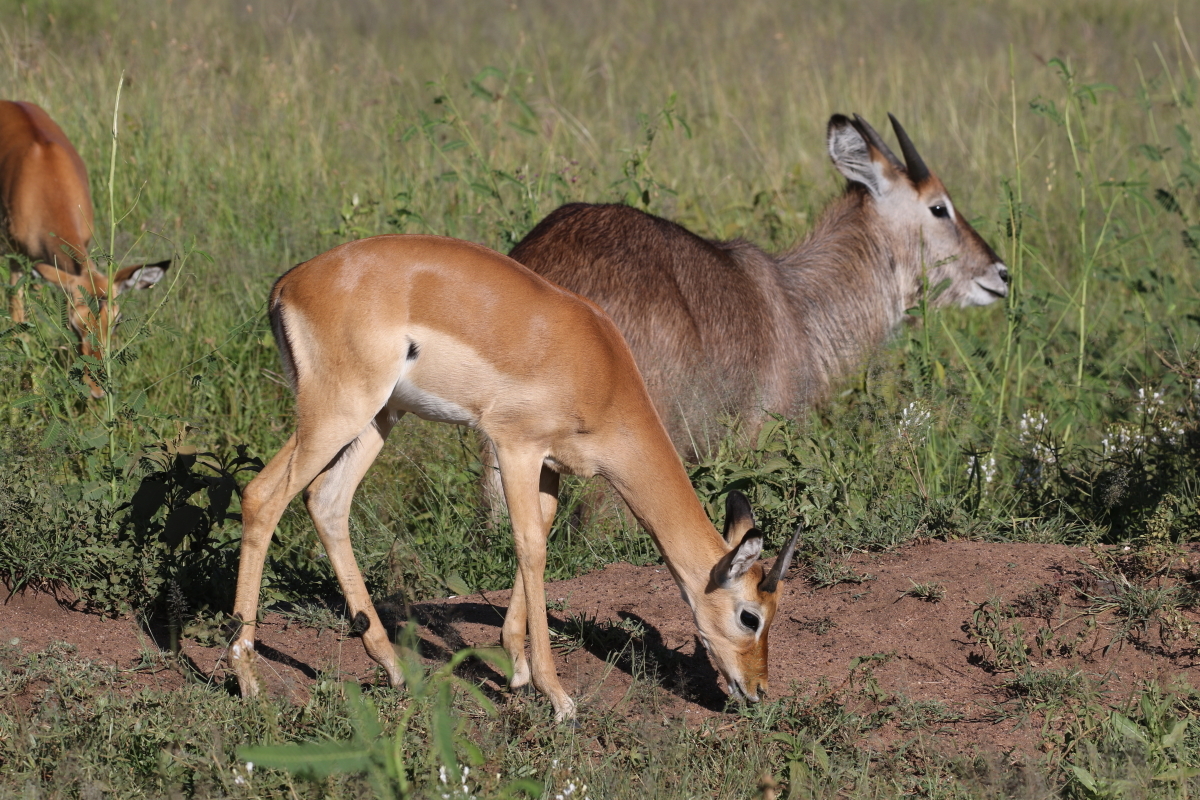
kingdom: Animalia
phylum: Chordata
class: Mammalia
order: Artiodactyla
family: Bovidae
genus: Aepyceros
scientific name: Aepyceros melampus
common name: Impala
